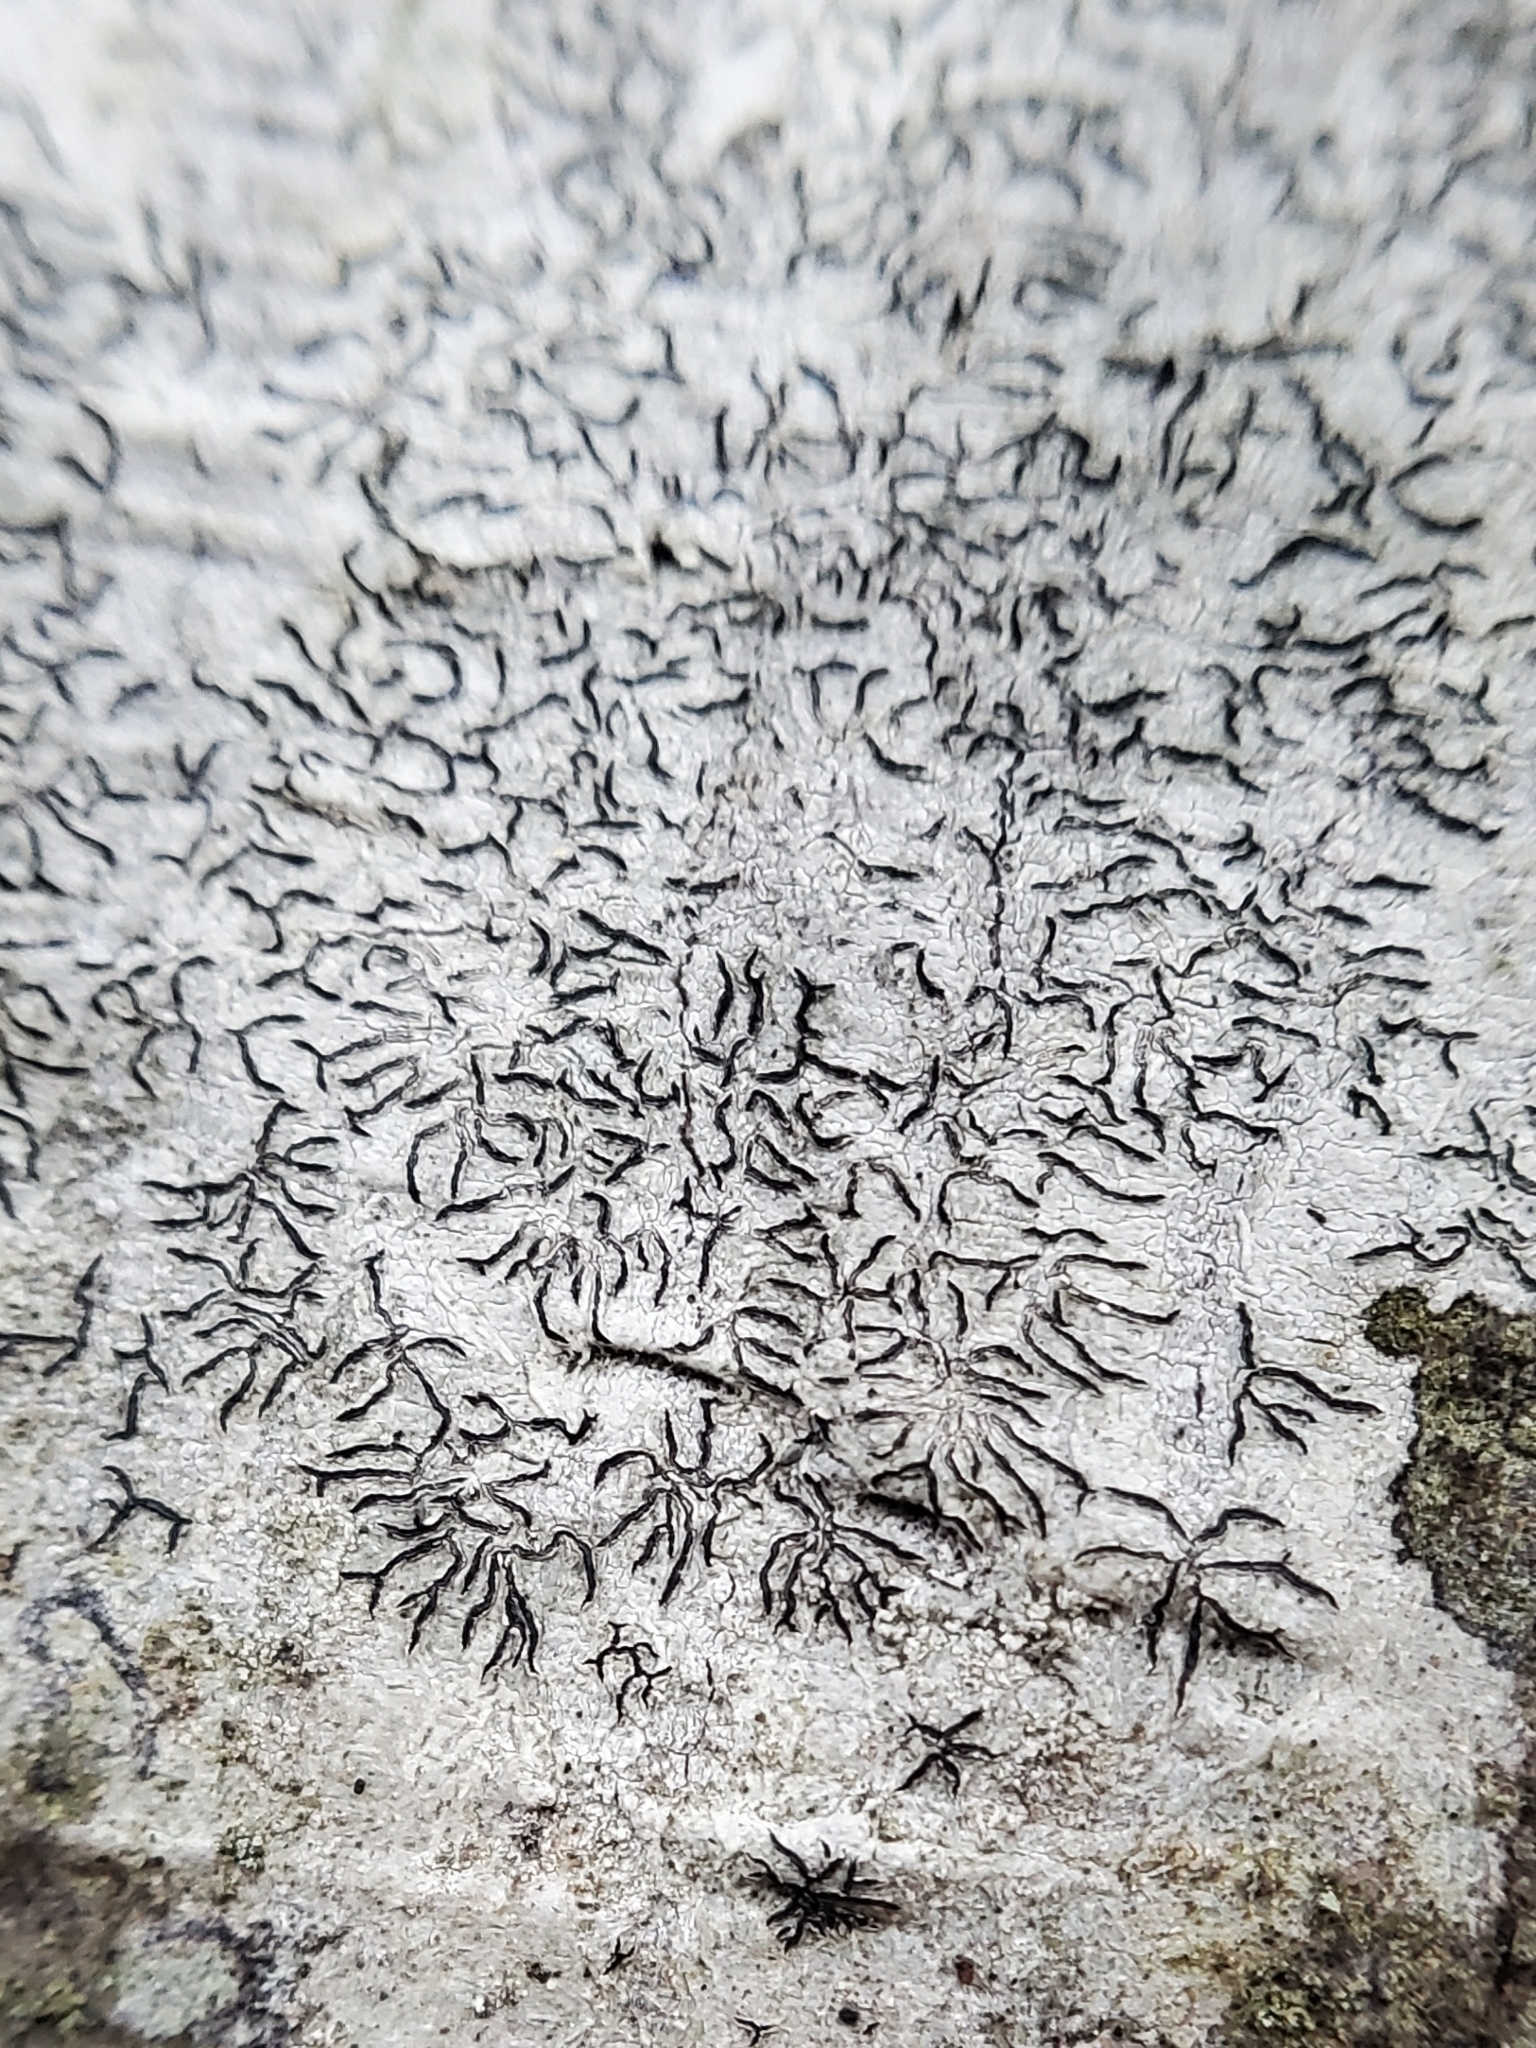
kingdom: Fungi
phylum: Ascomycota
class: Lecanoromycetes
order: Ostropales
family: Graphidaceae
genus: Graphis
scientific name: Graphis scripta
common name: Script lichen
